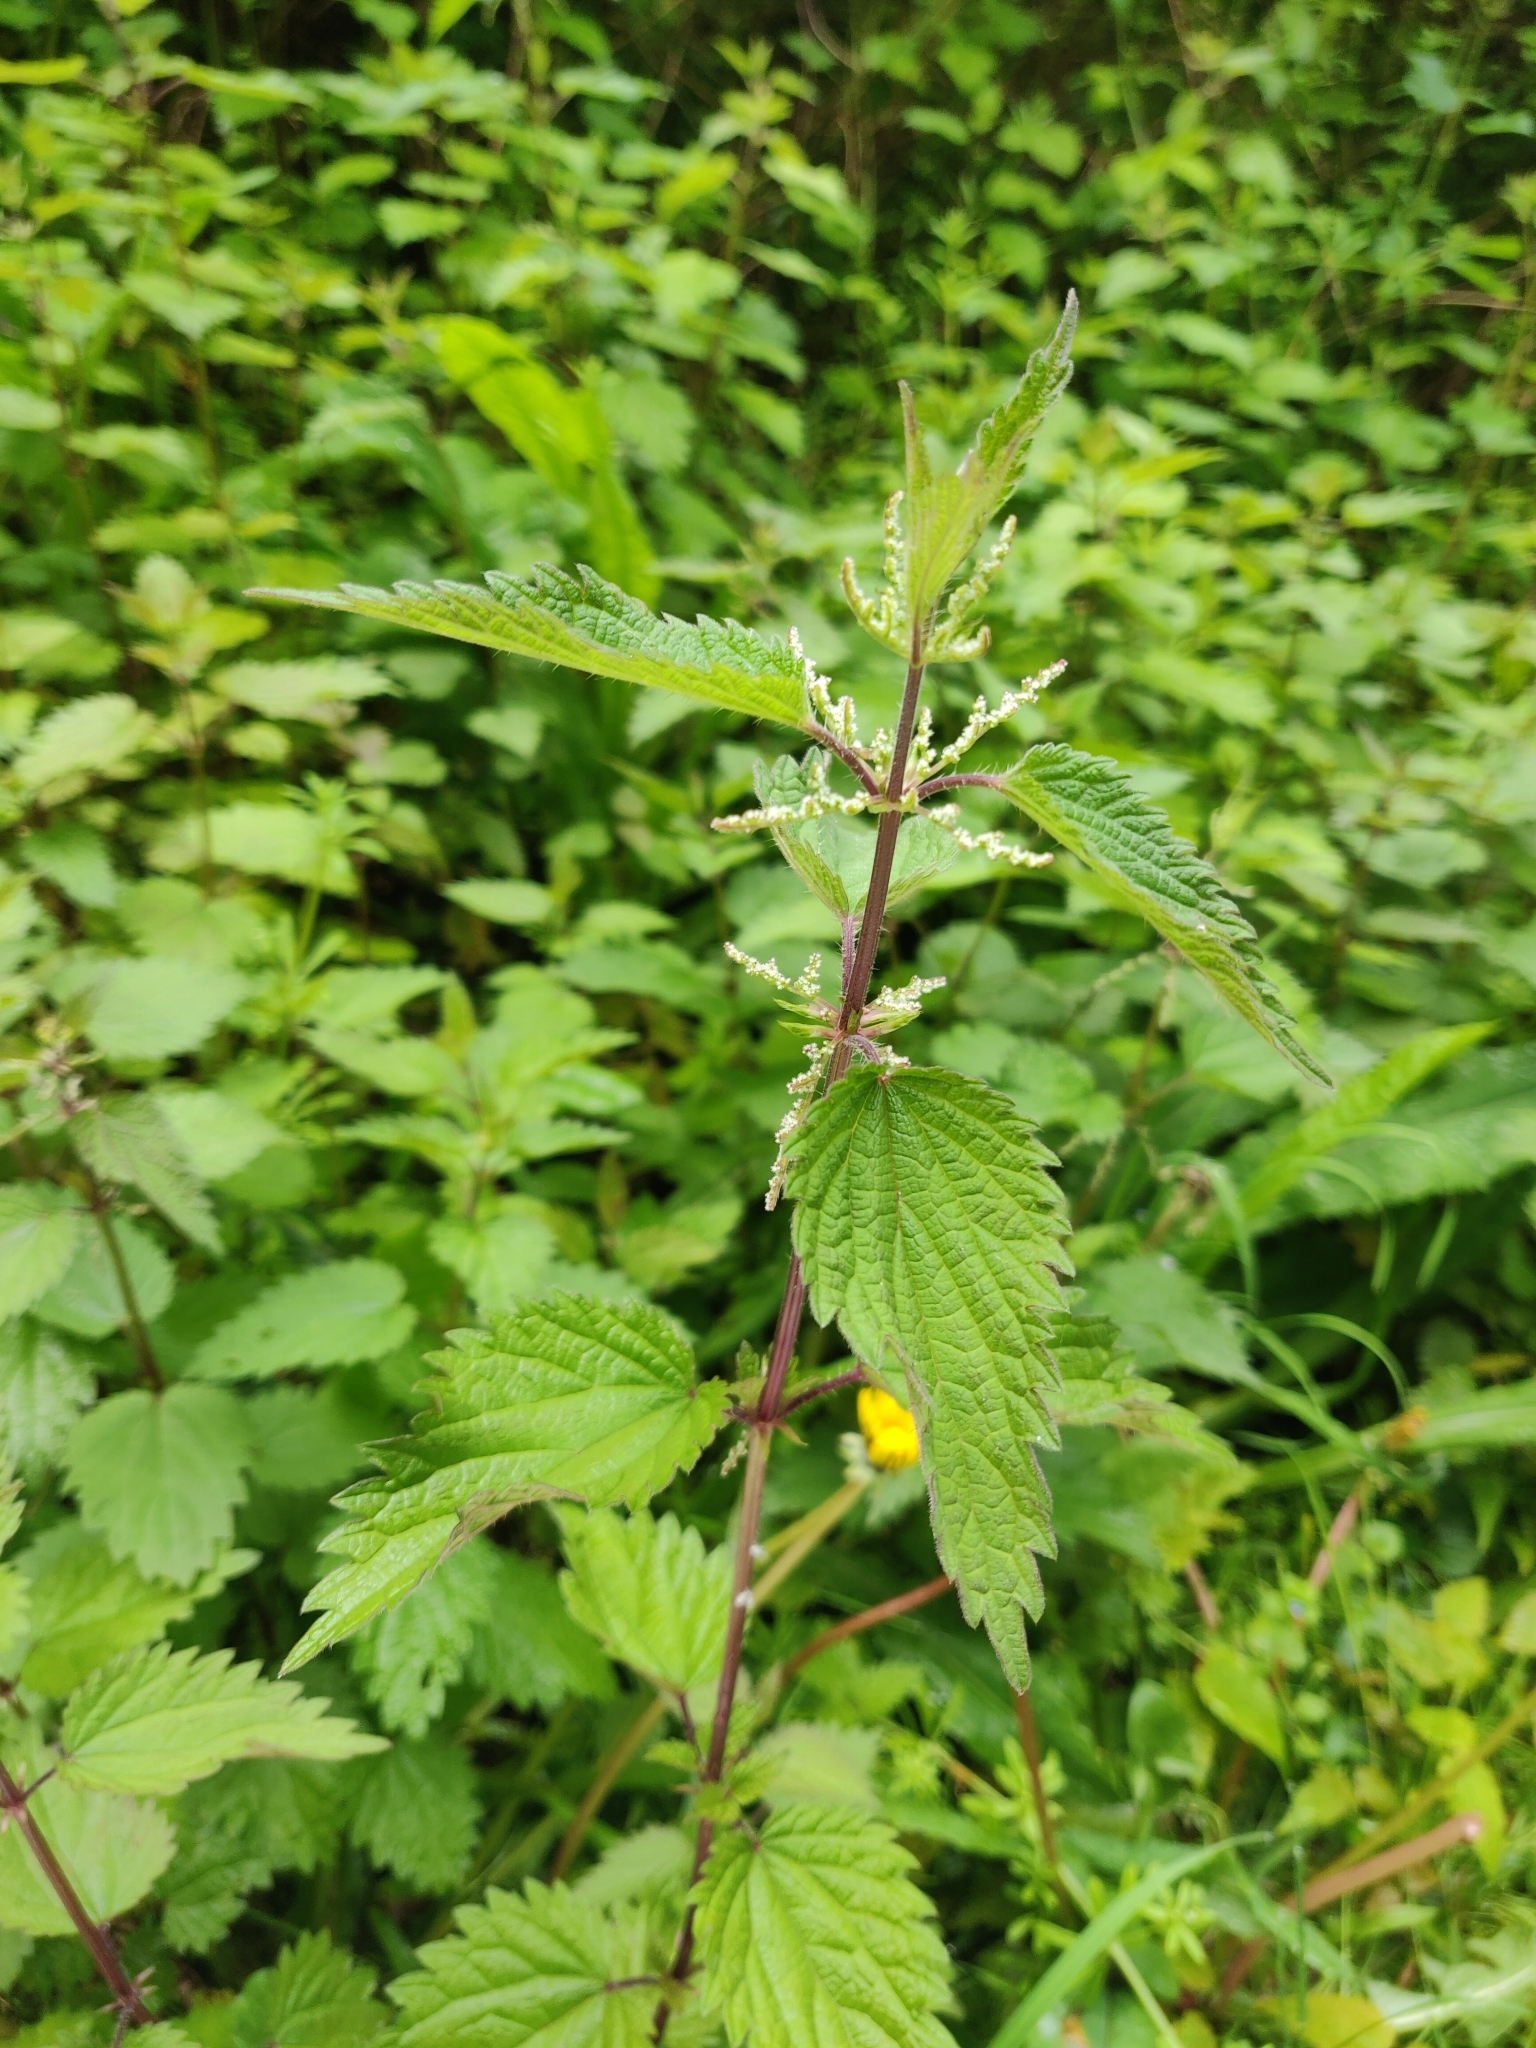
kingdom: Plantae
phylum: Tracheophyta
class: Magnoliopsida
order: Rosales
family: Urticaceae
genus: Urtica
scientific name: Urtica dioica
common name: Common nettle
